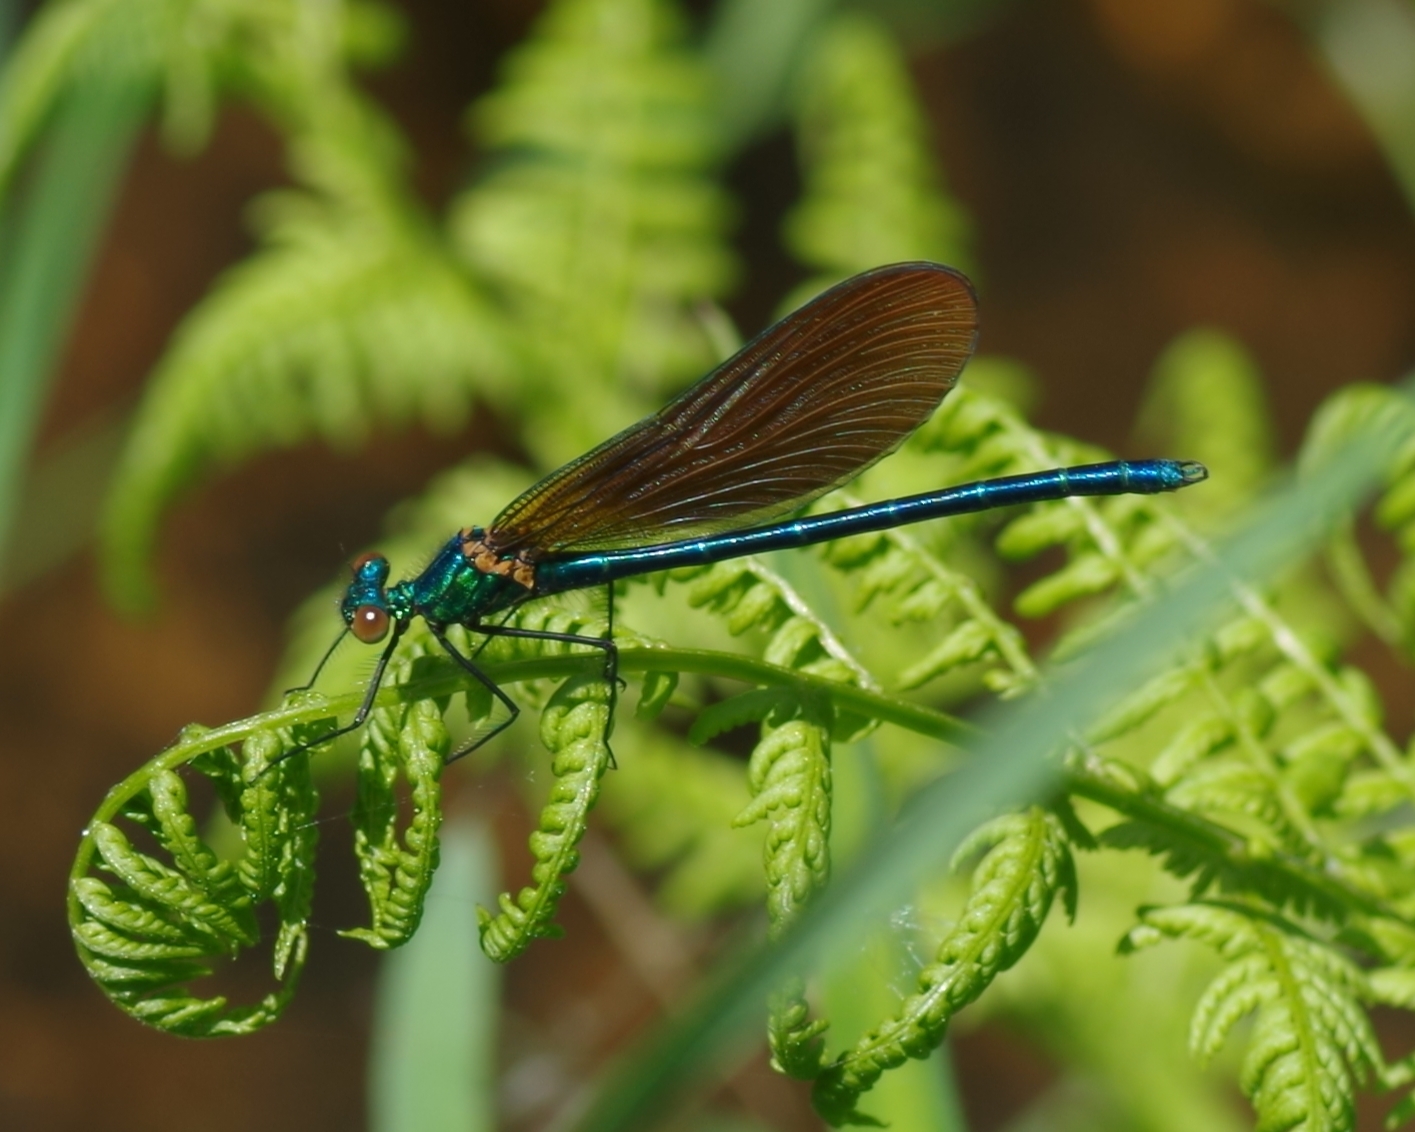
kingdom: Animalia
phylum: Arthropoda
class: Insecta
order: Odonata
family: Calopterygidae
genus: Calopteryx
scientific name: Calopteryx virgo
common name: Beautiful demoiselle
